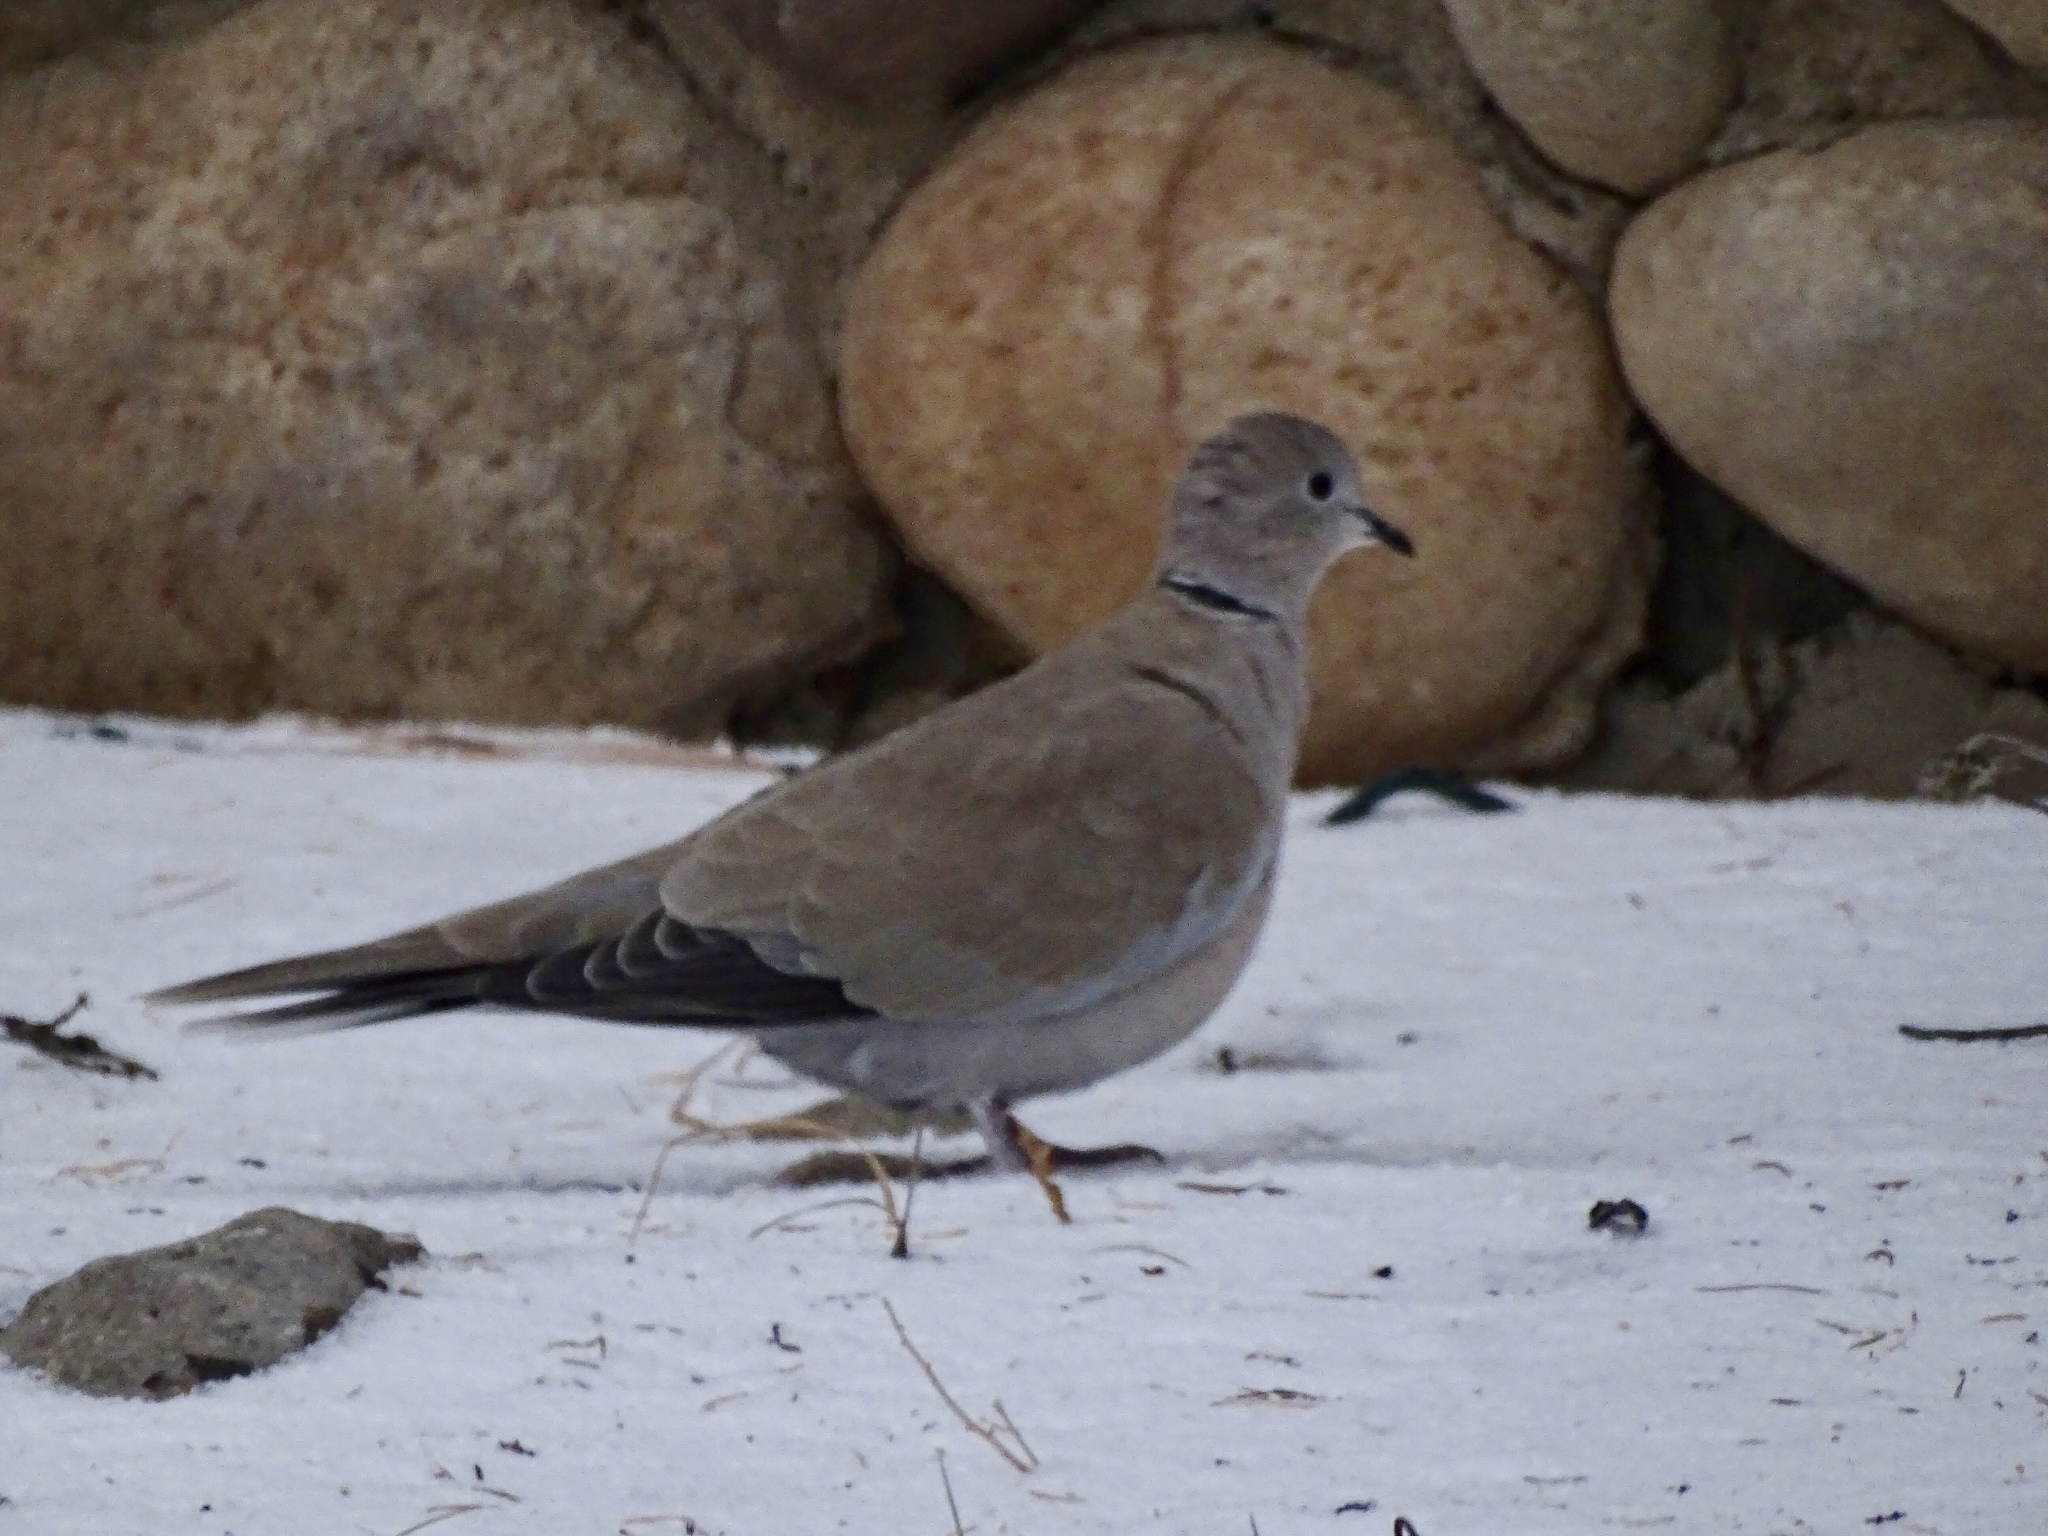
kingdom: Animalia
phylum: Chordata
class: Aves
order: Columbiformes
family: Columbidae
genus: Streptopelia
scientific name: Streptopelia decaocto
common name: Eurasian collared dove
